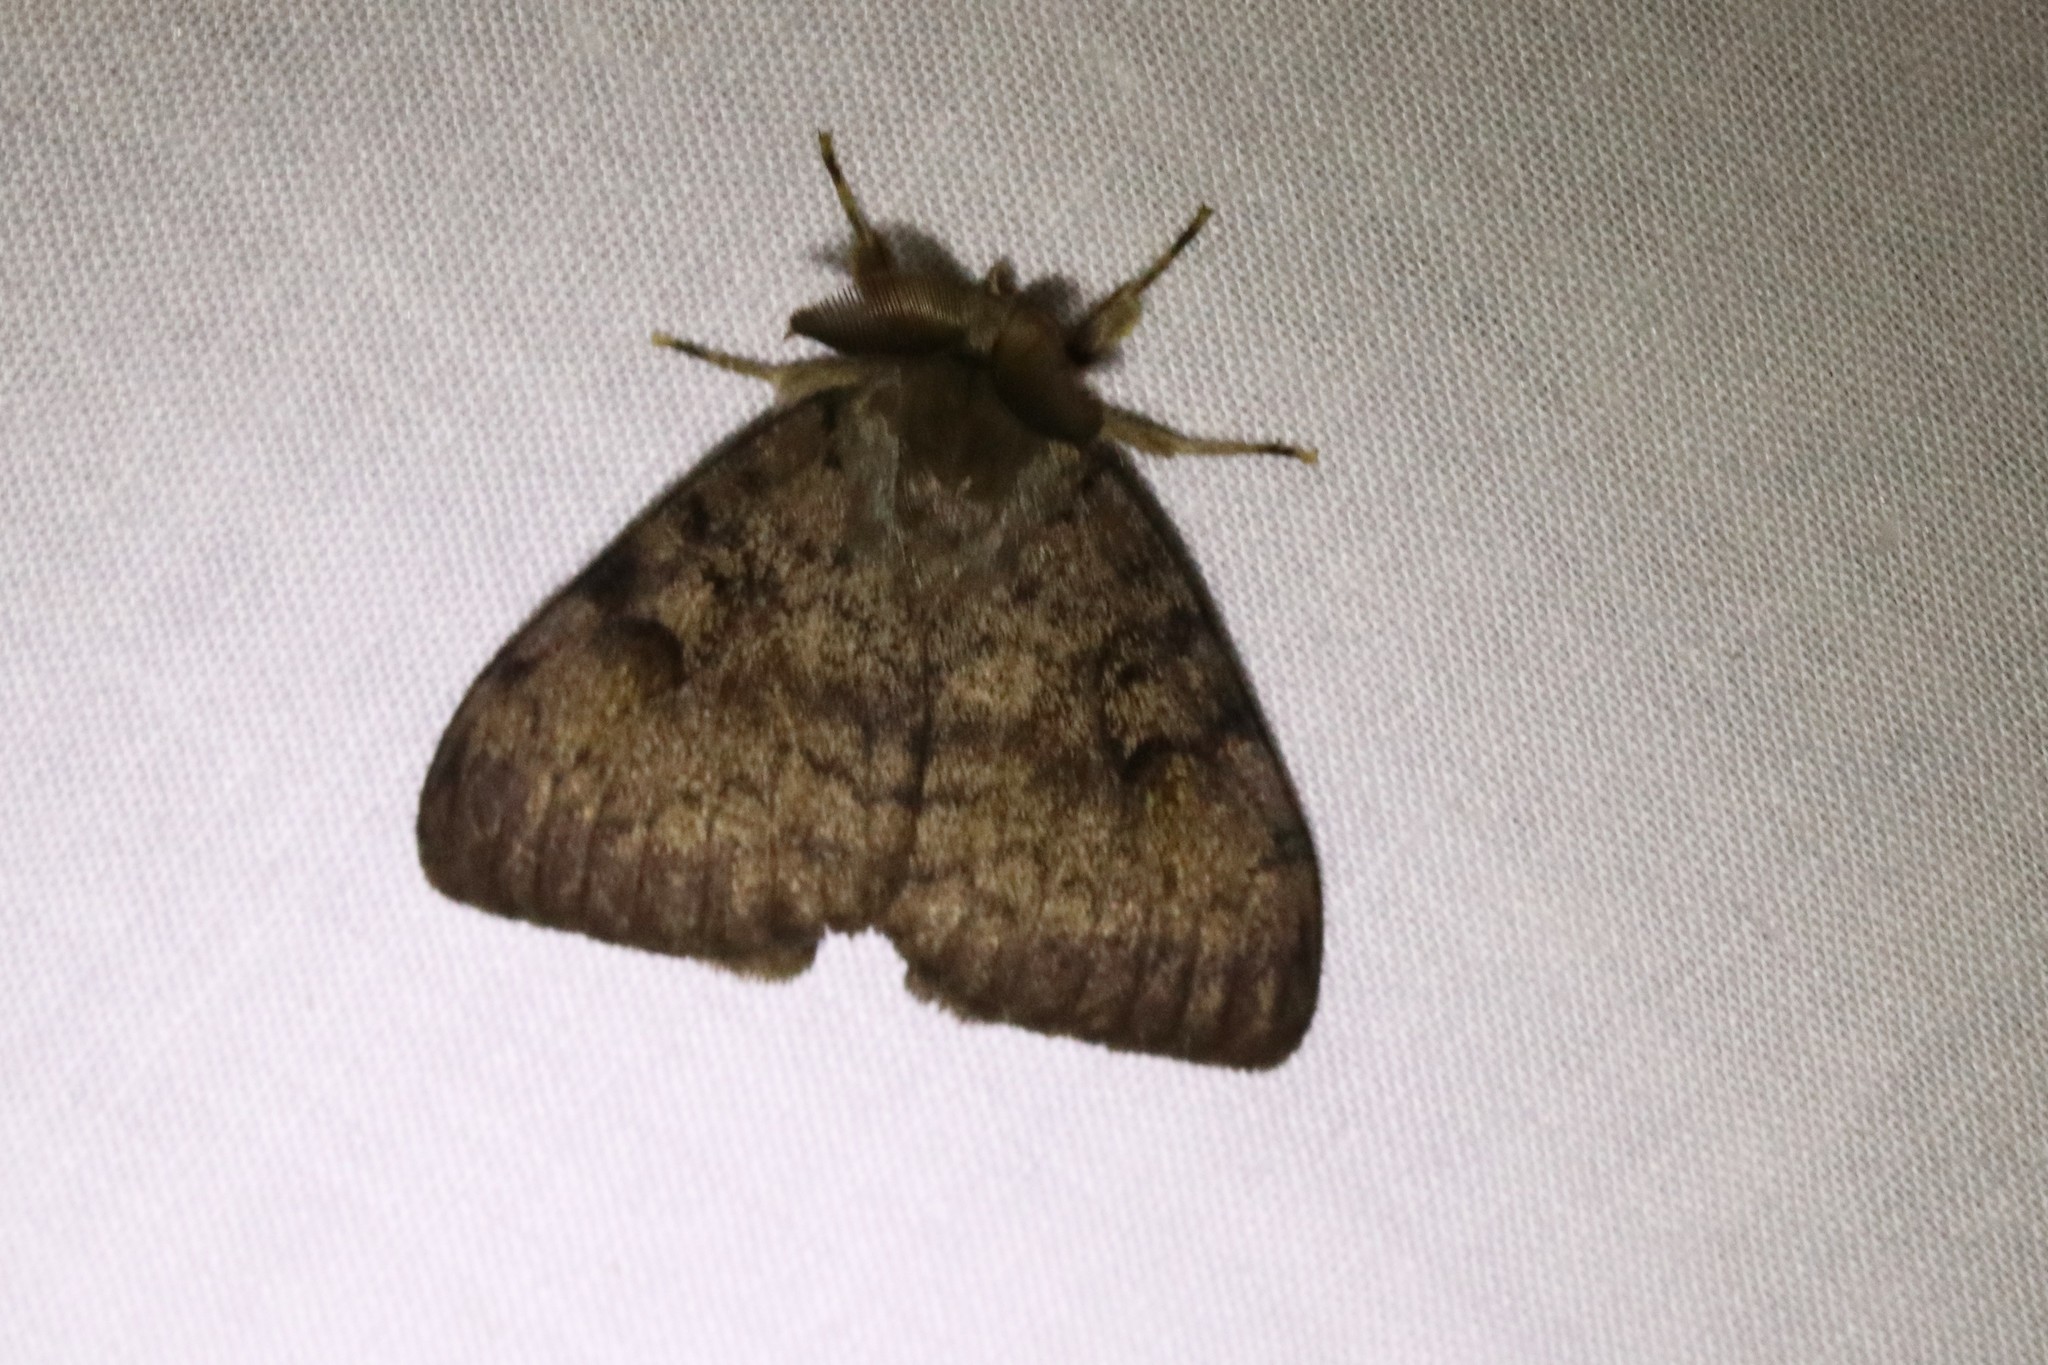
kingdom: Animalia
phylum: Arthropoda
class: Insecta
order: Lepidoptera
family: Erebidae
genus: Lymantria
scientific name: Lymantria dispar
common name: Gypsy moth
